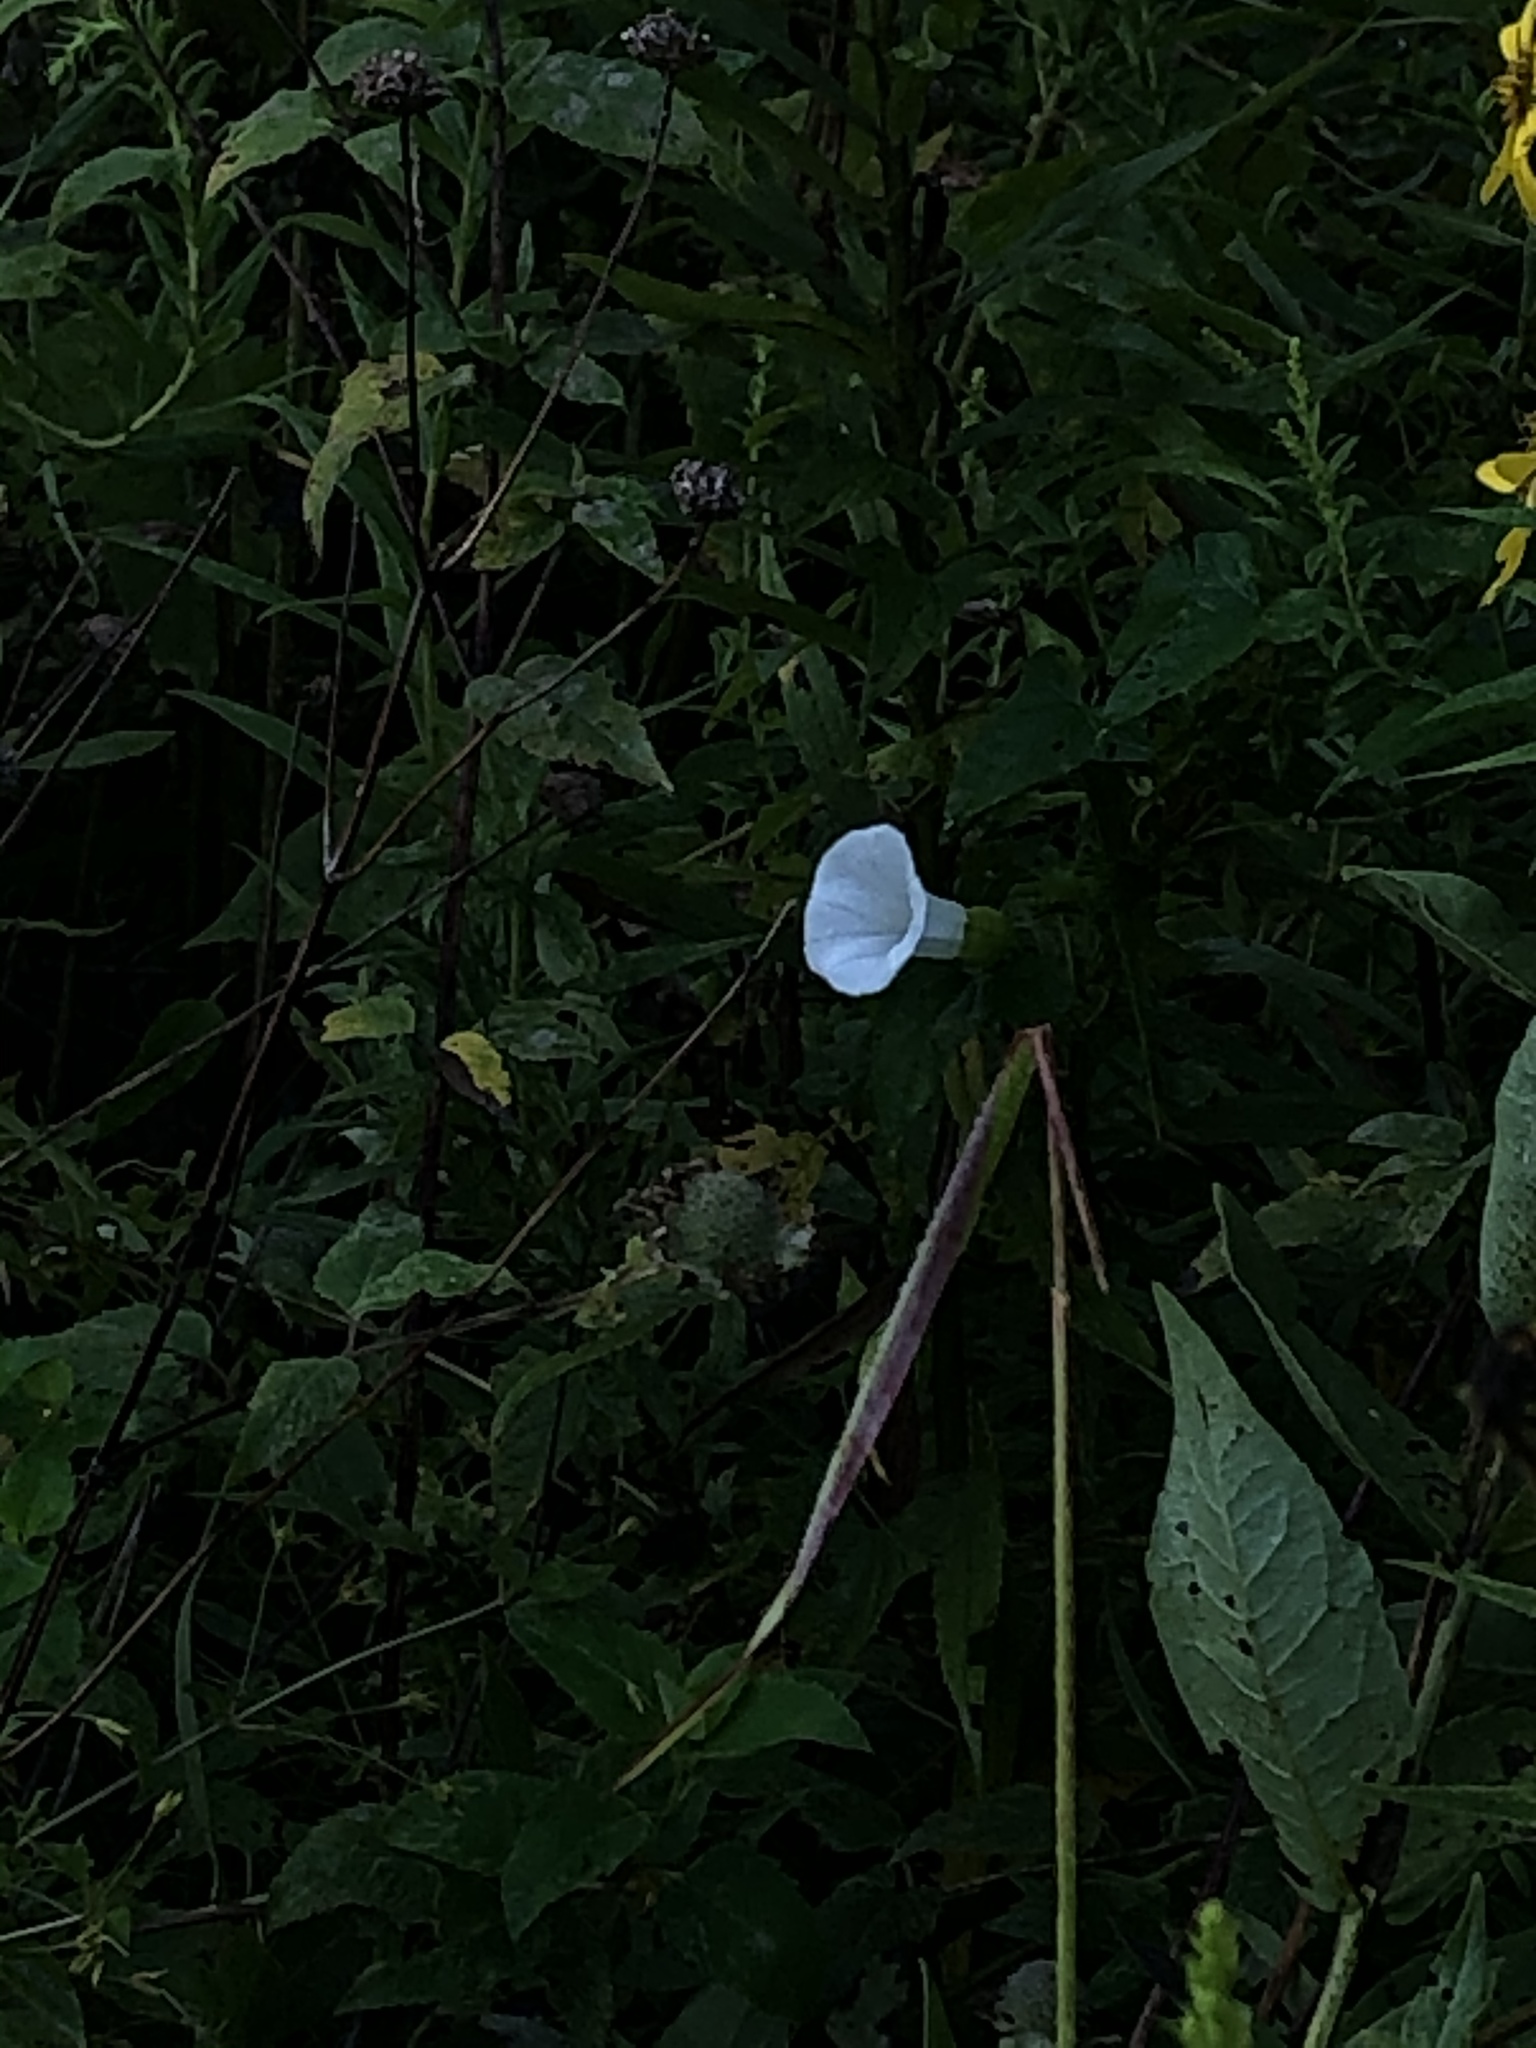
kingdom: Plantae
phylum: Tracheophyta
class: Magnoliopsida
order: Solanales
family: Convolvulaceae
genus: Calystegia
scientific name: Calystegia silvatica
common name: Large bindweed
